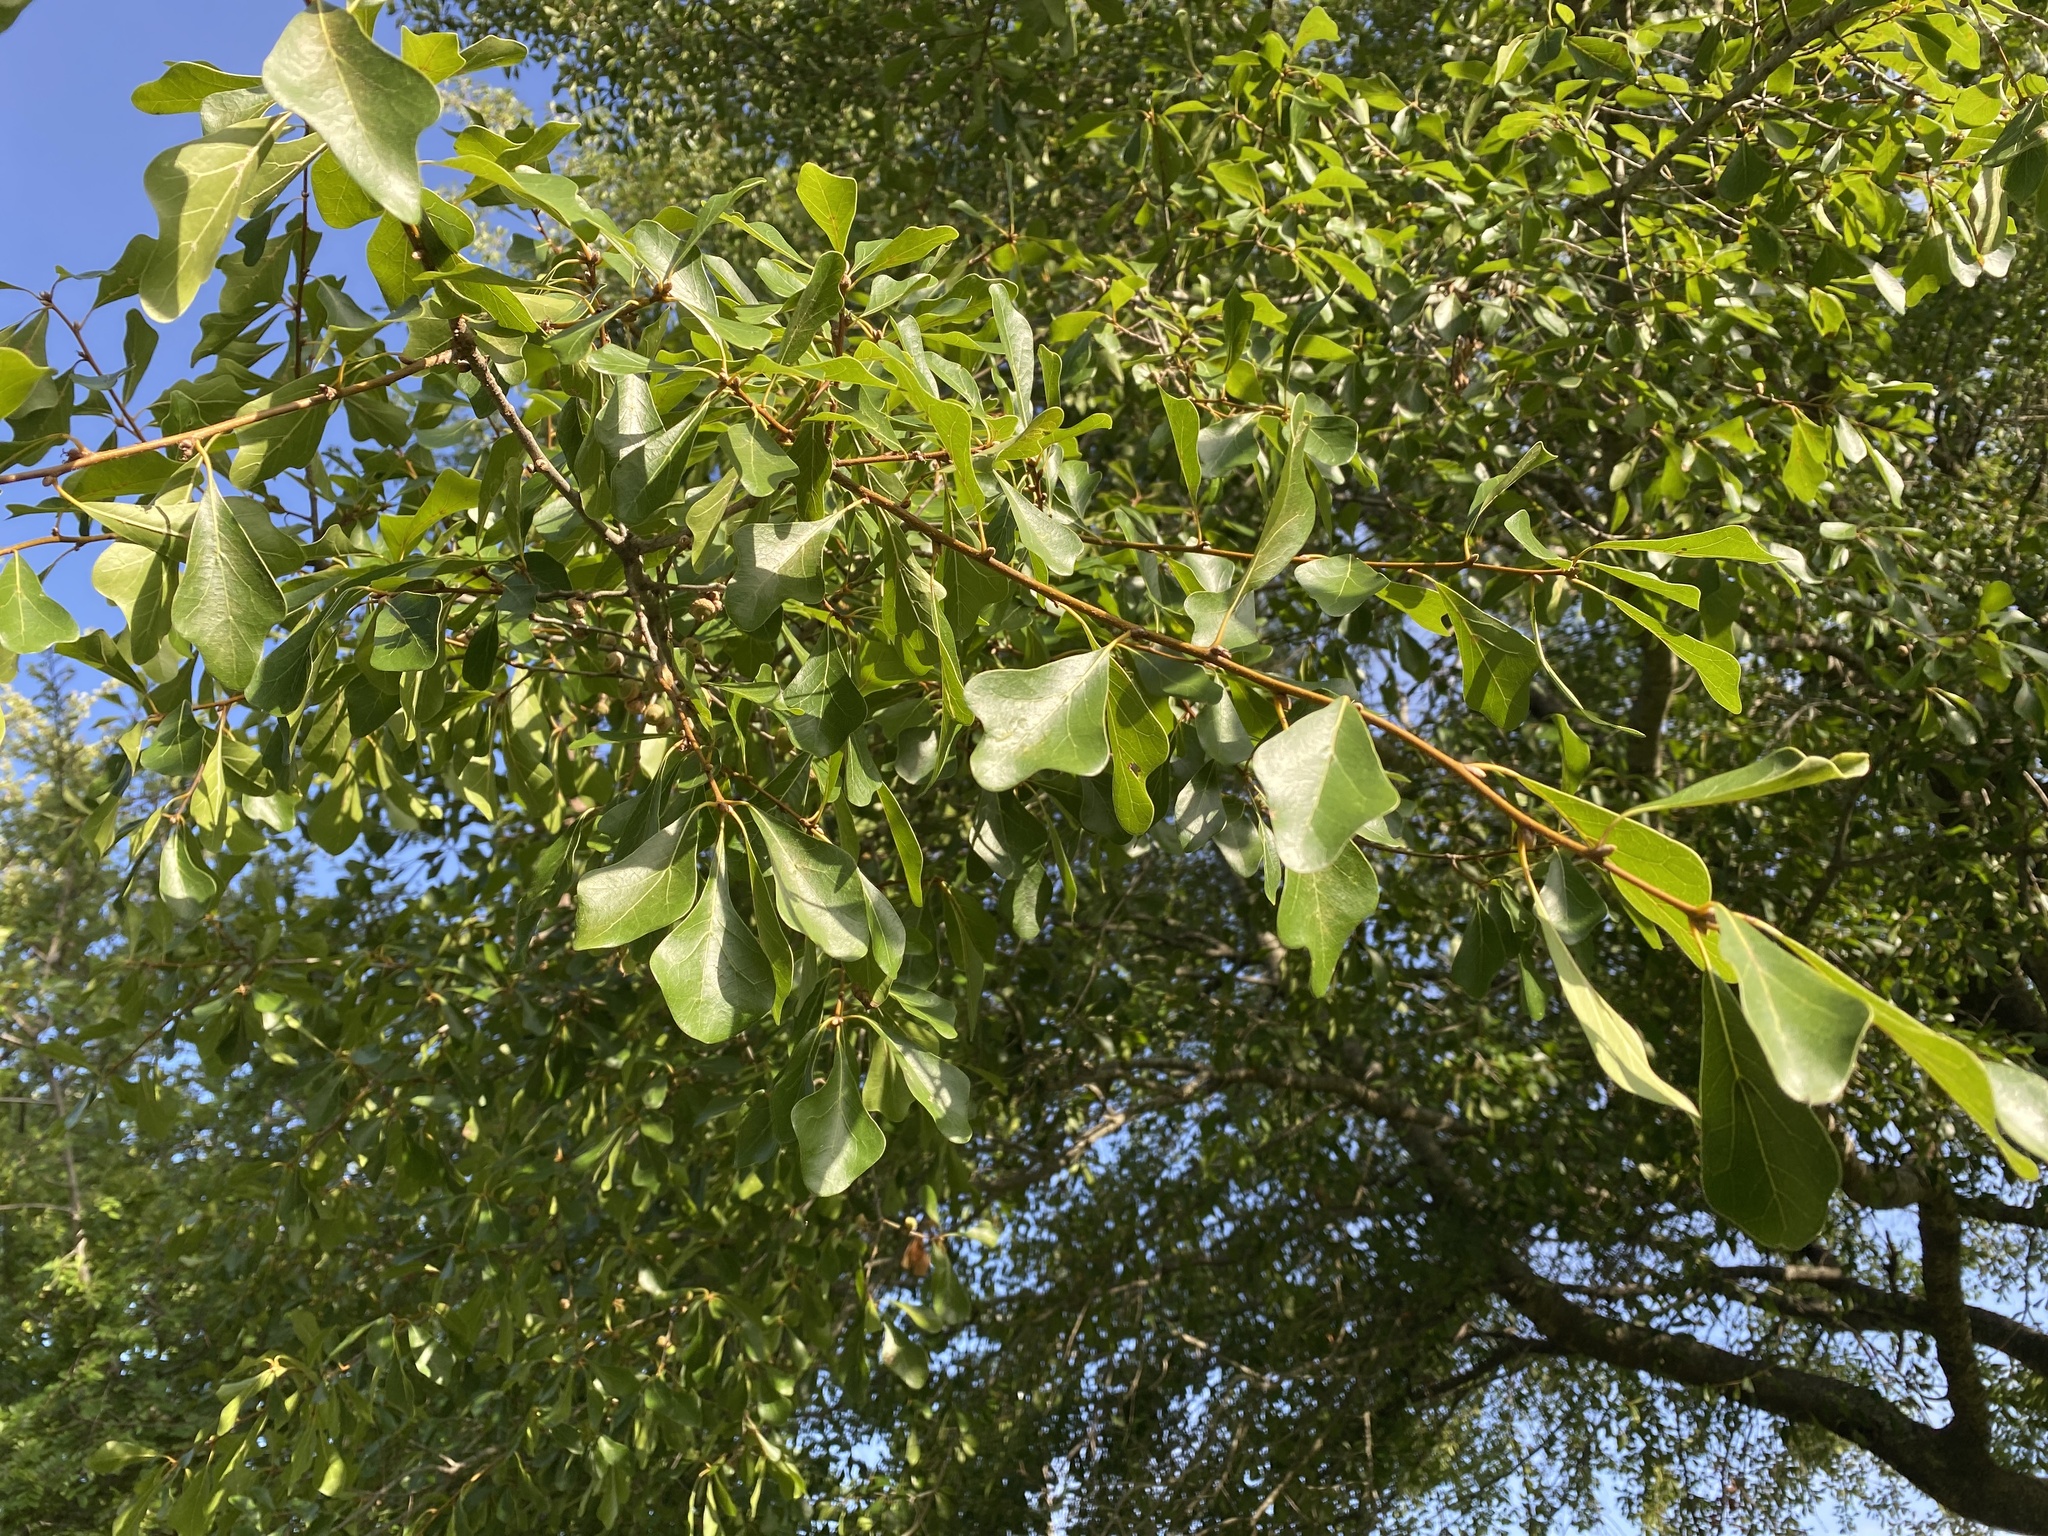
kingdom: Plantae
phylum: Tracheophyta
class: Magnoliopsida
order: Fagales
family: Fagaceae
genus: Quercus
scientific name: Quercus nigra
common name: Water oak
